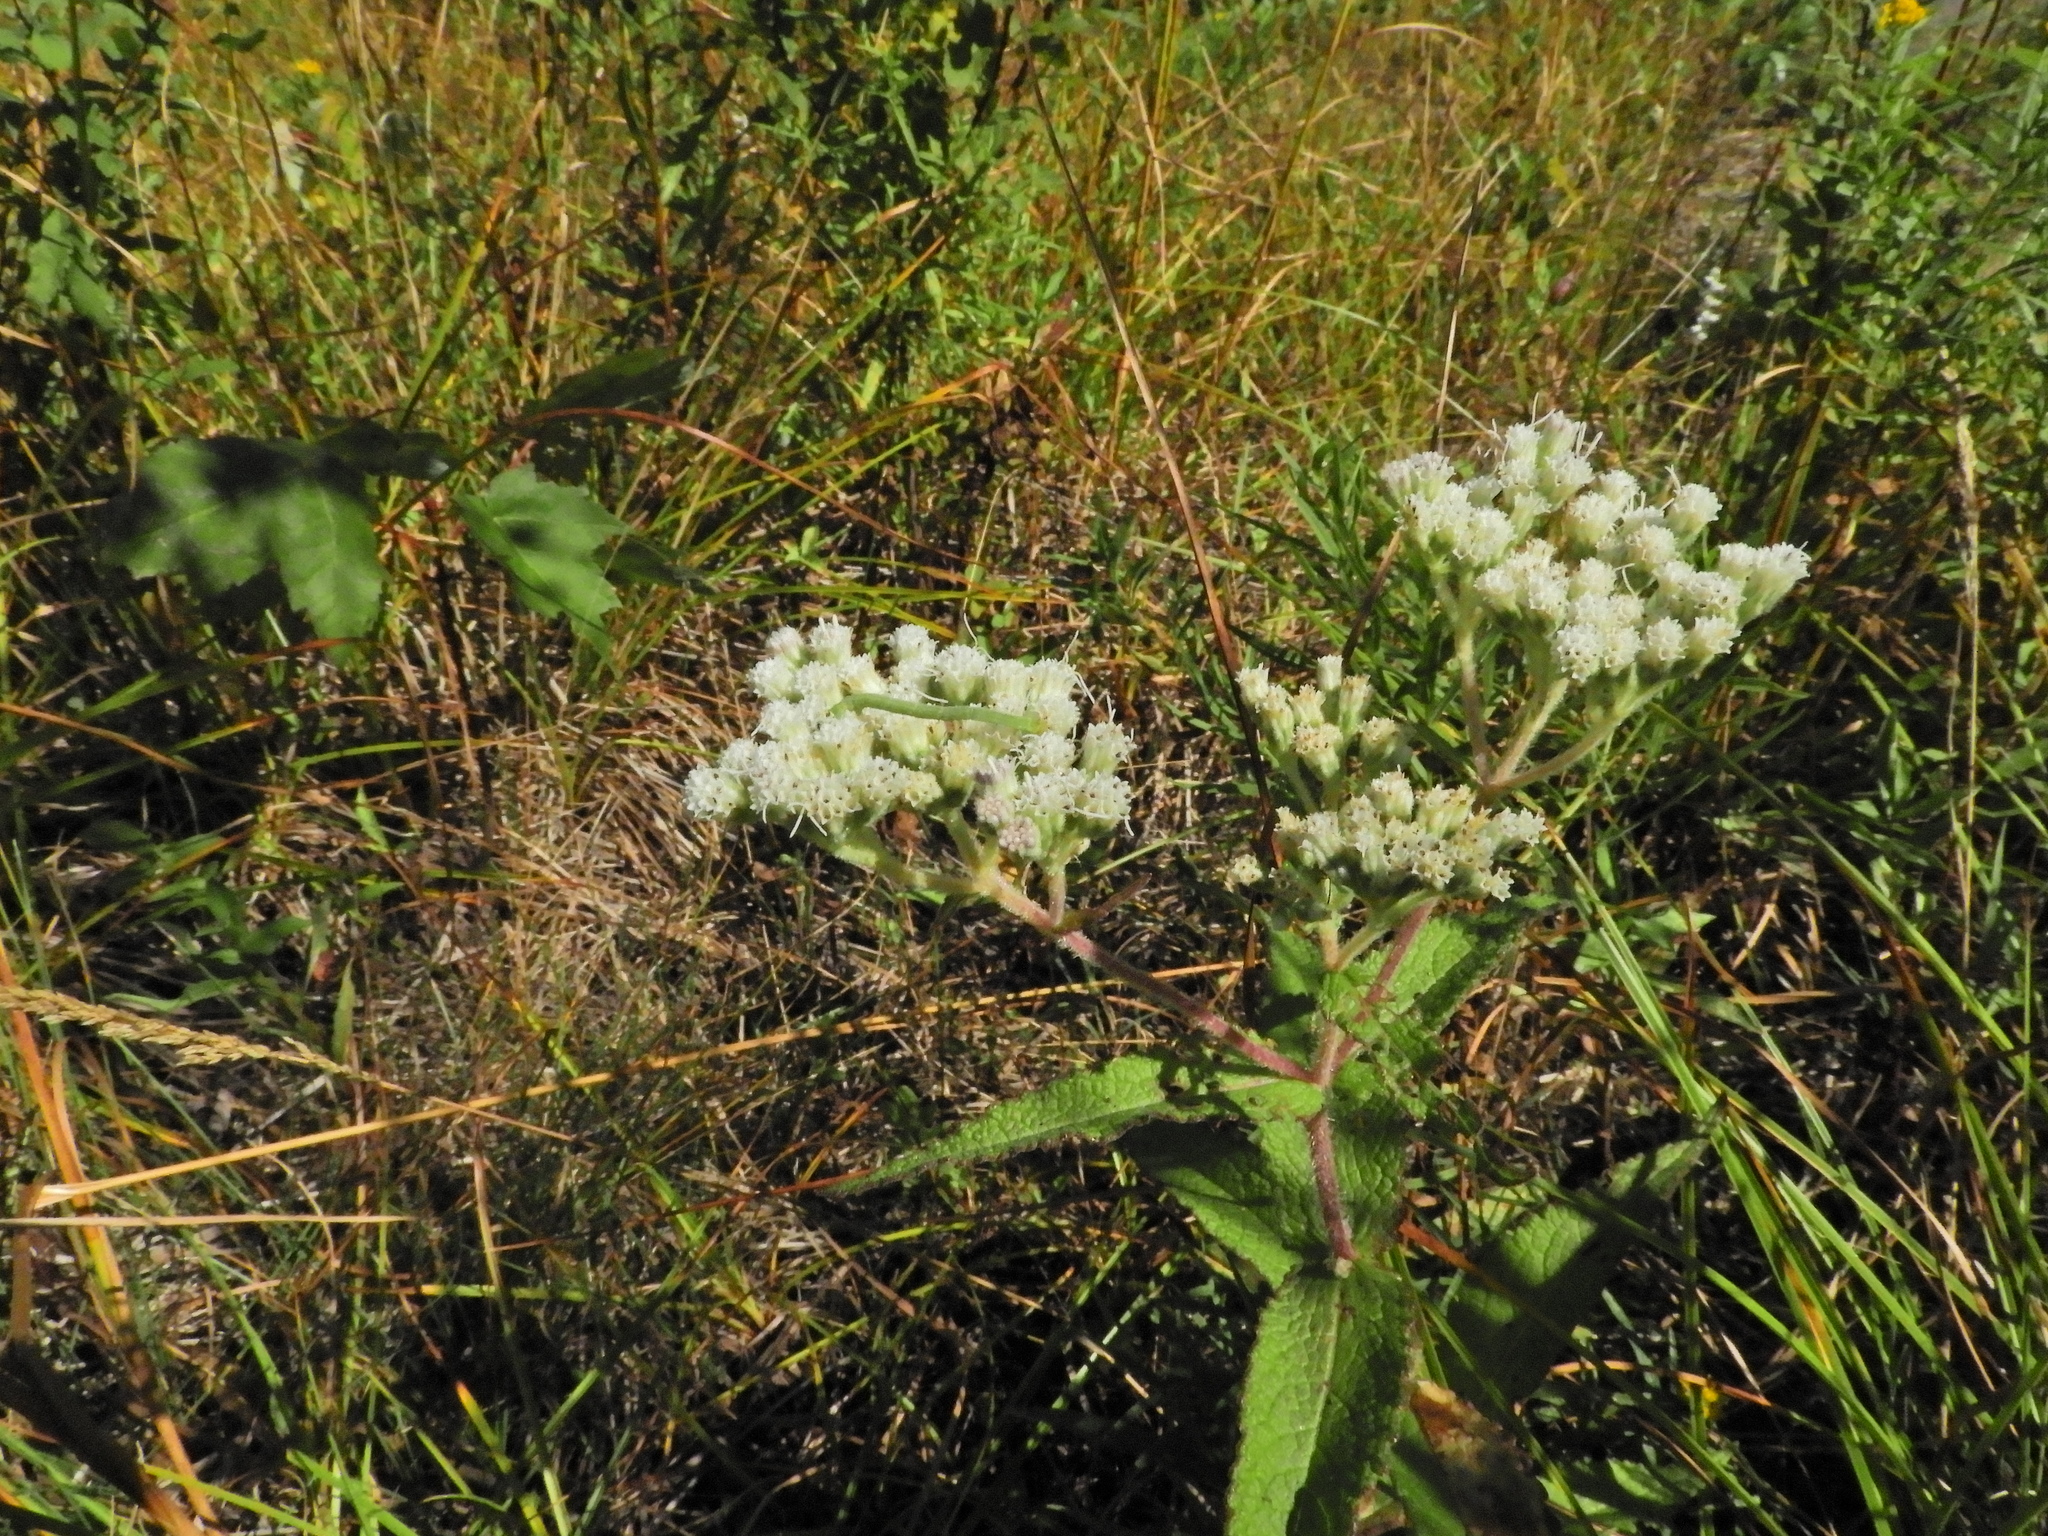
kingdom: Plantae
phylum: Tracheophyta
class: Magnoliopsida
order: Asterales
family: Asteraceae
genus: Eupatorium
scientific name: Eupatorium perfoliatum
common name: Boneset
